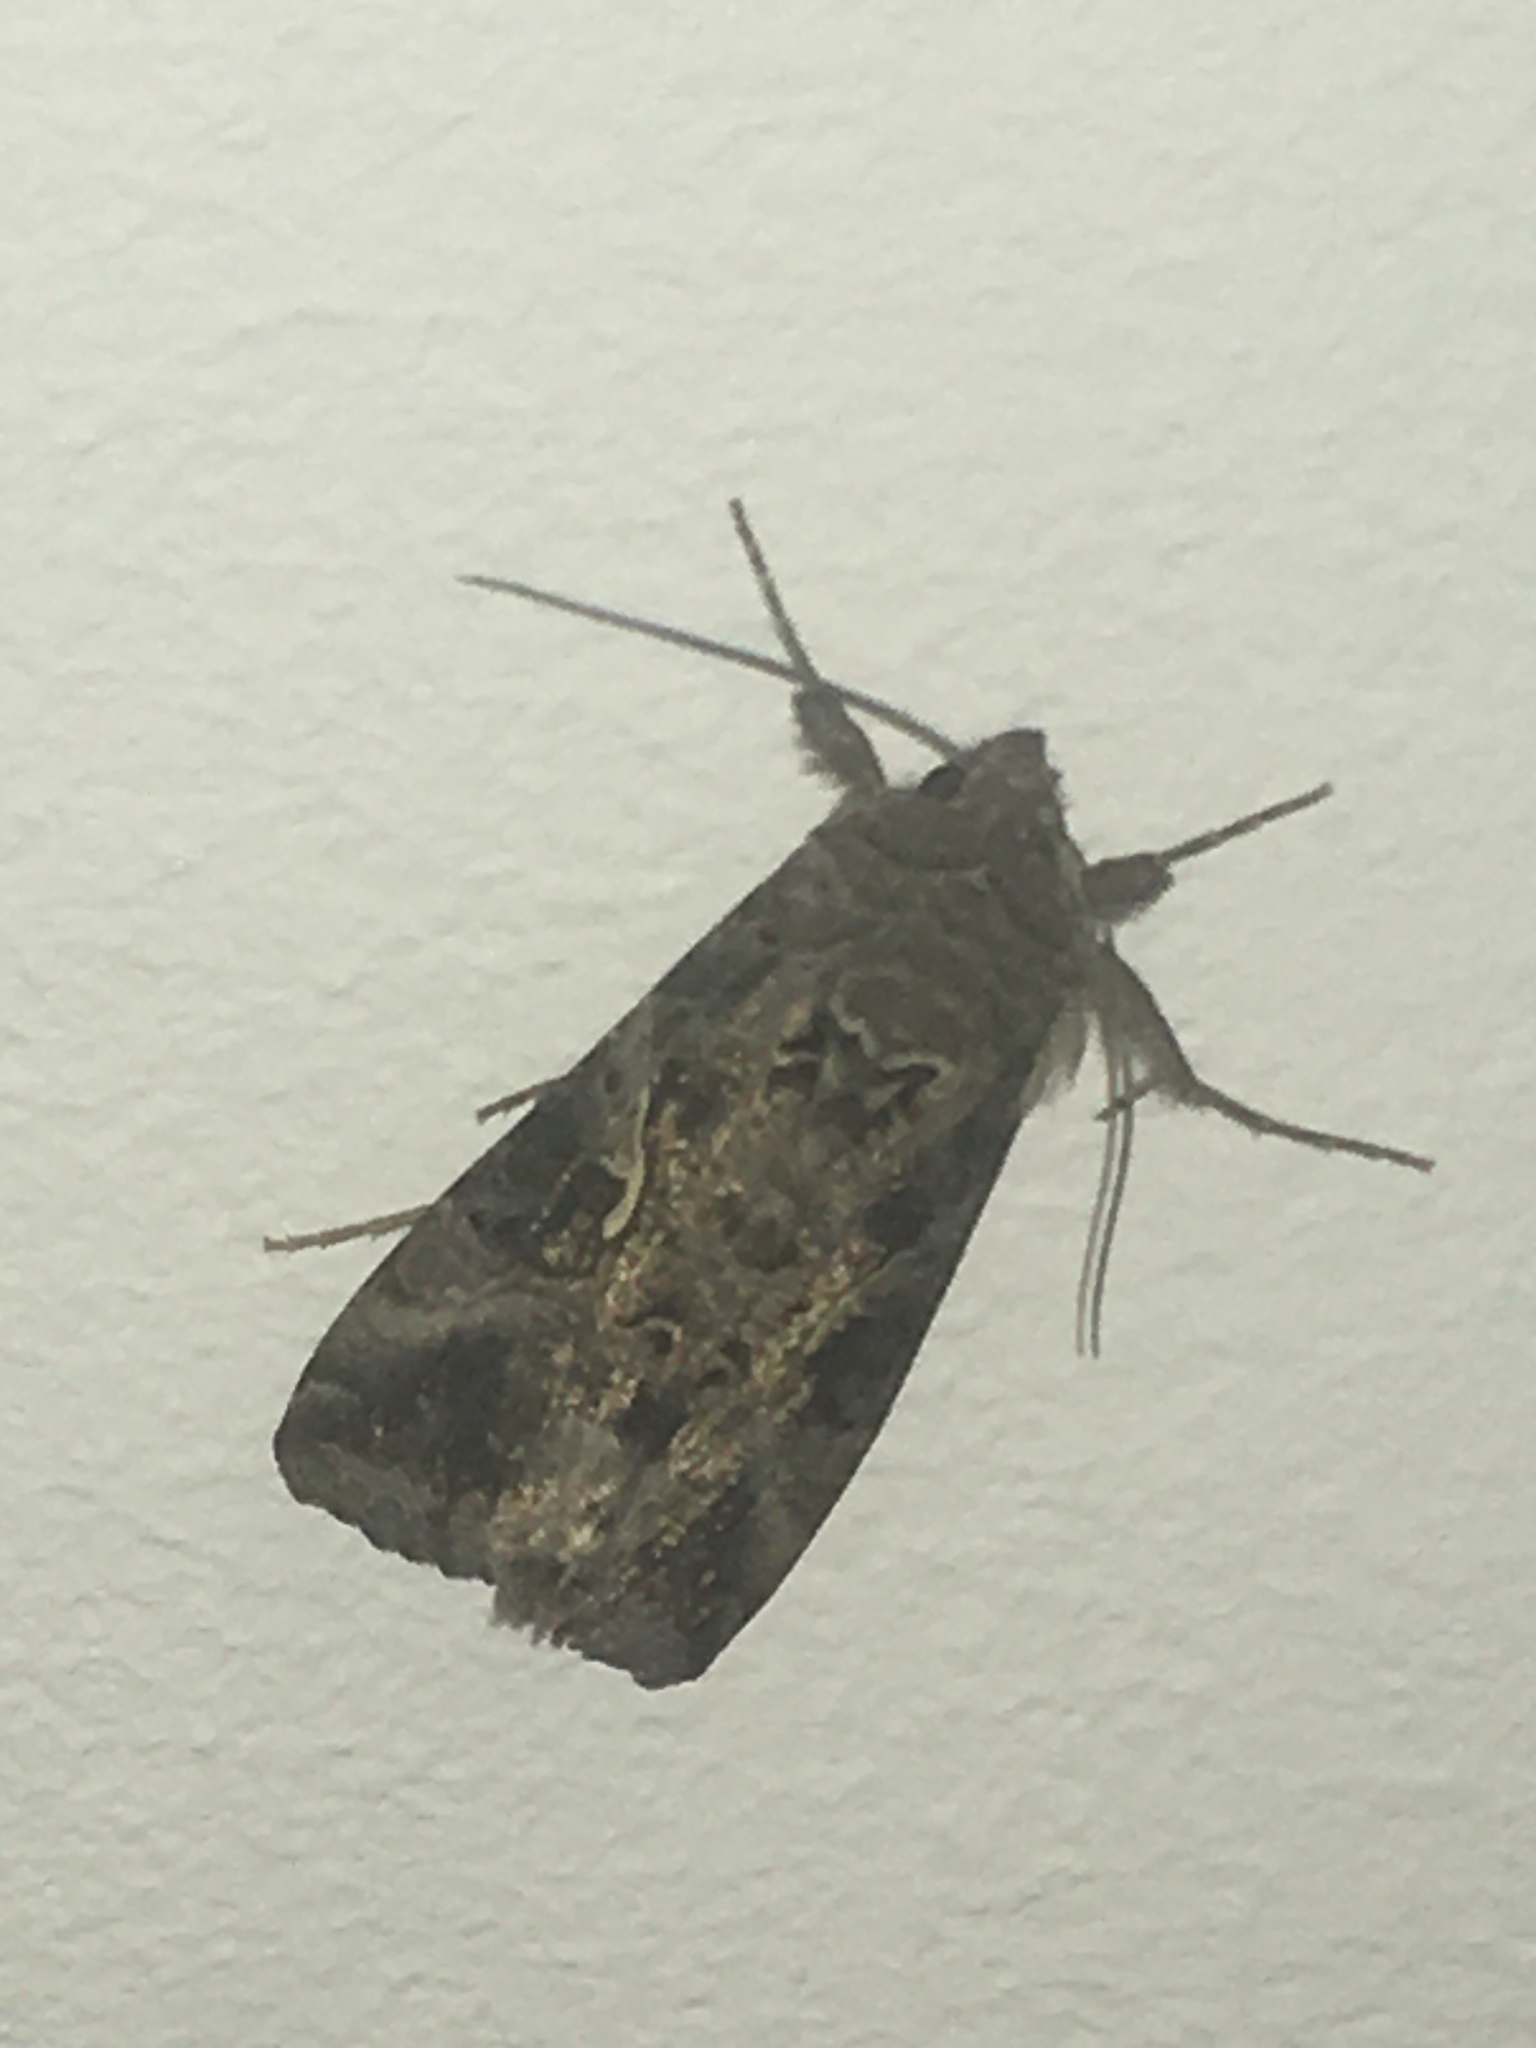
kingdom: Animalia
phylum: Arthropoda
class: Insecta
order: Lepidoptera
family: Noctuidae
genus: Autographa
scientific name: Autographa gamma
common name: Silver y
